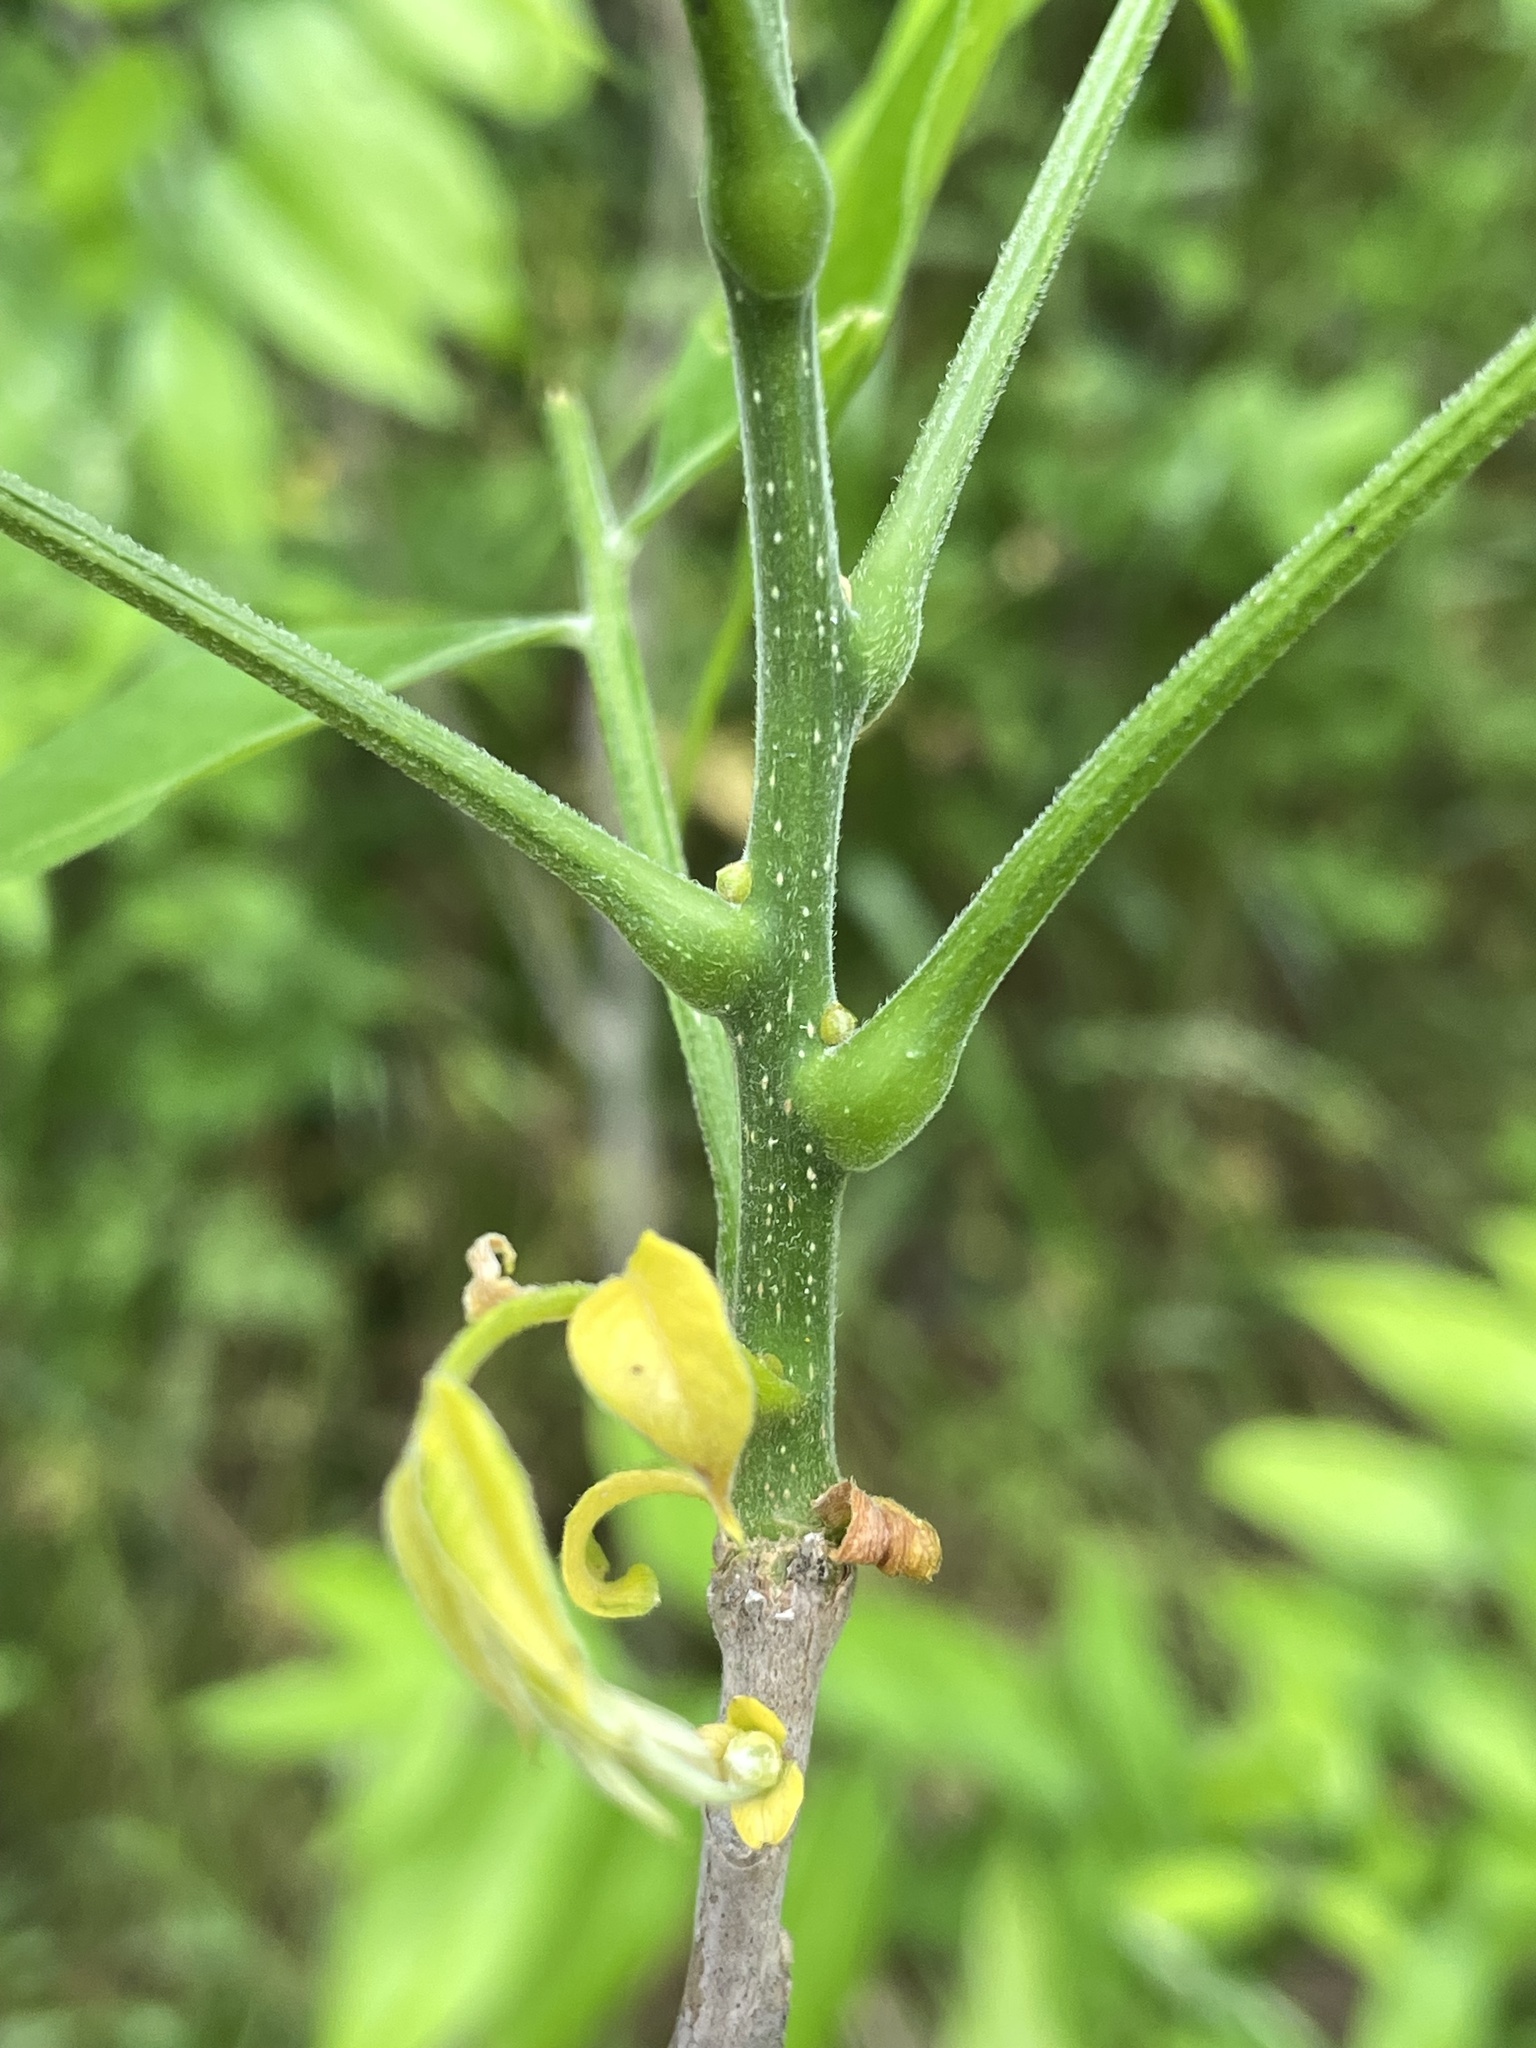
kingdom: Plantae
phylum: Tracheophyta
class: Magnoliopsida
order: Sapindales
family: Sapindaceae
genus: Sapindus
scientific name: Sapindus drummondii
